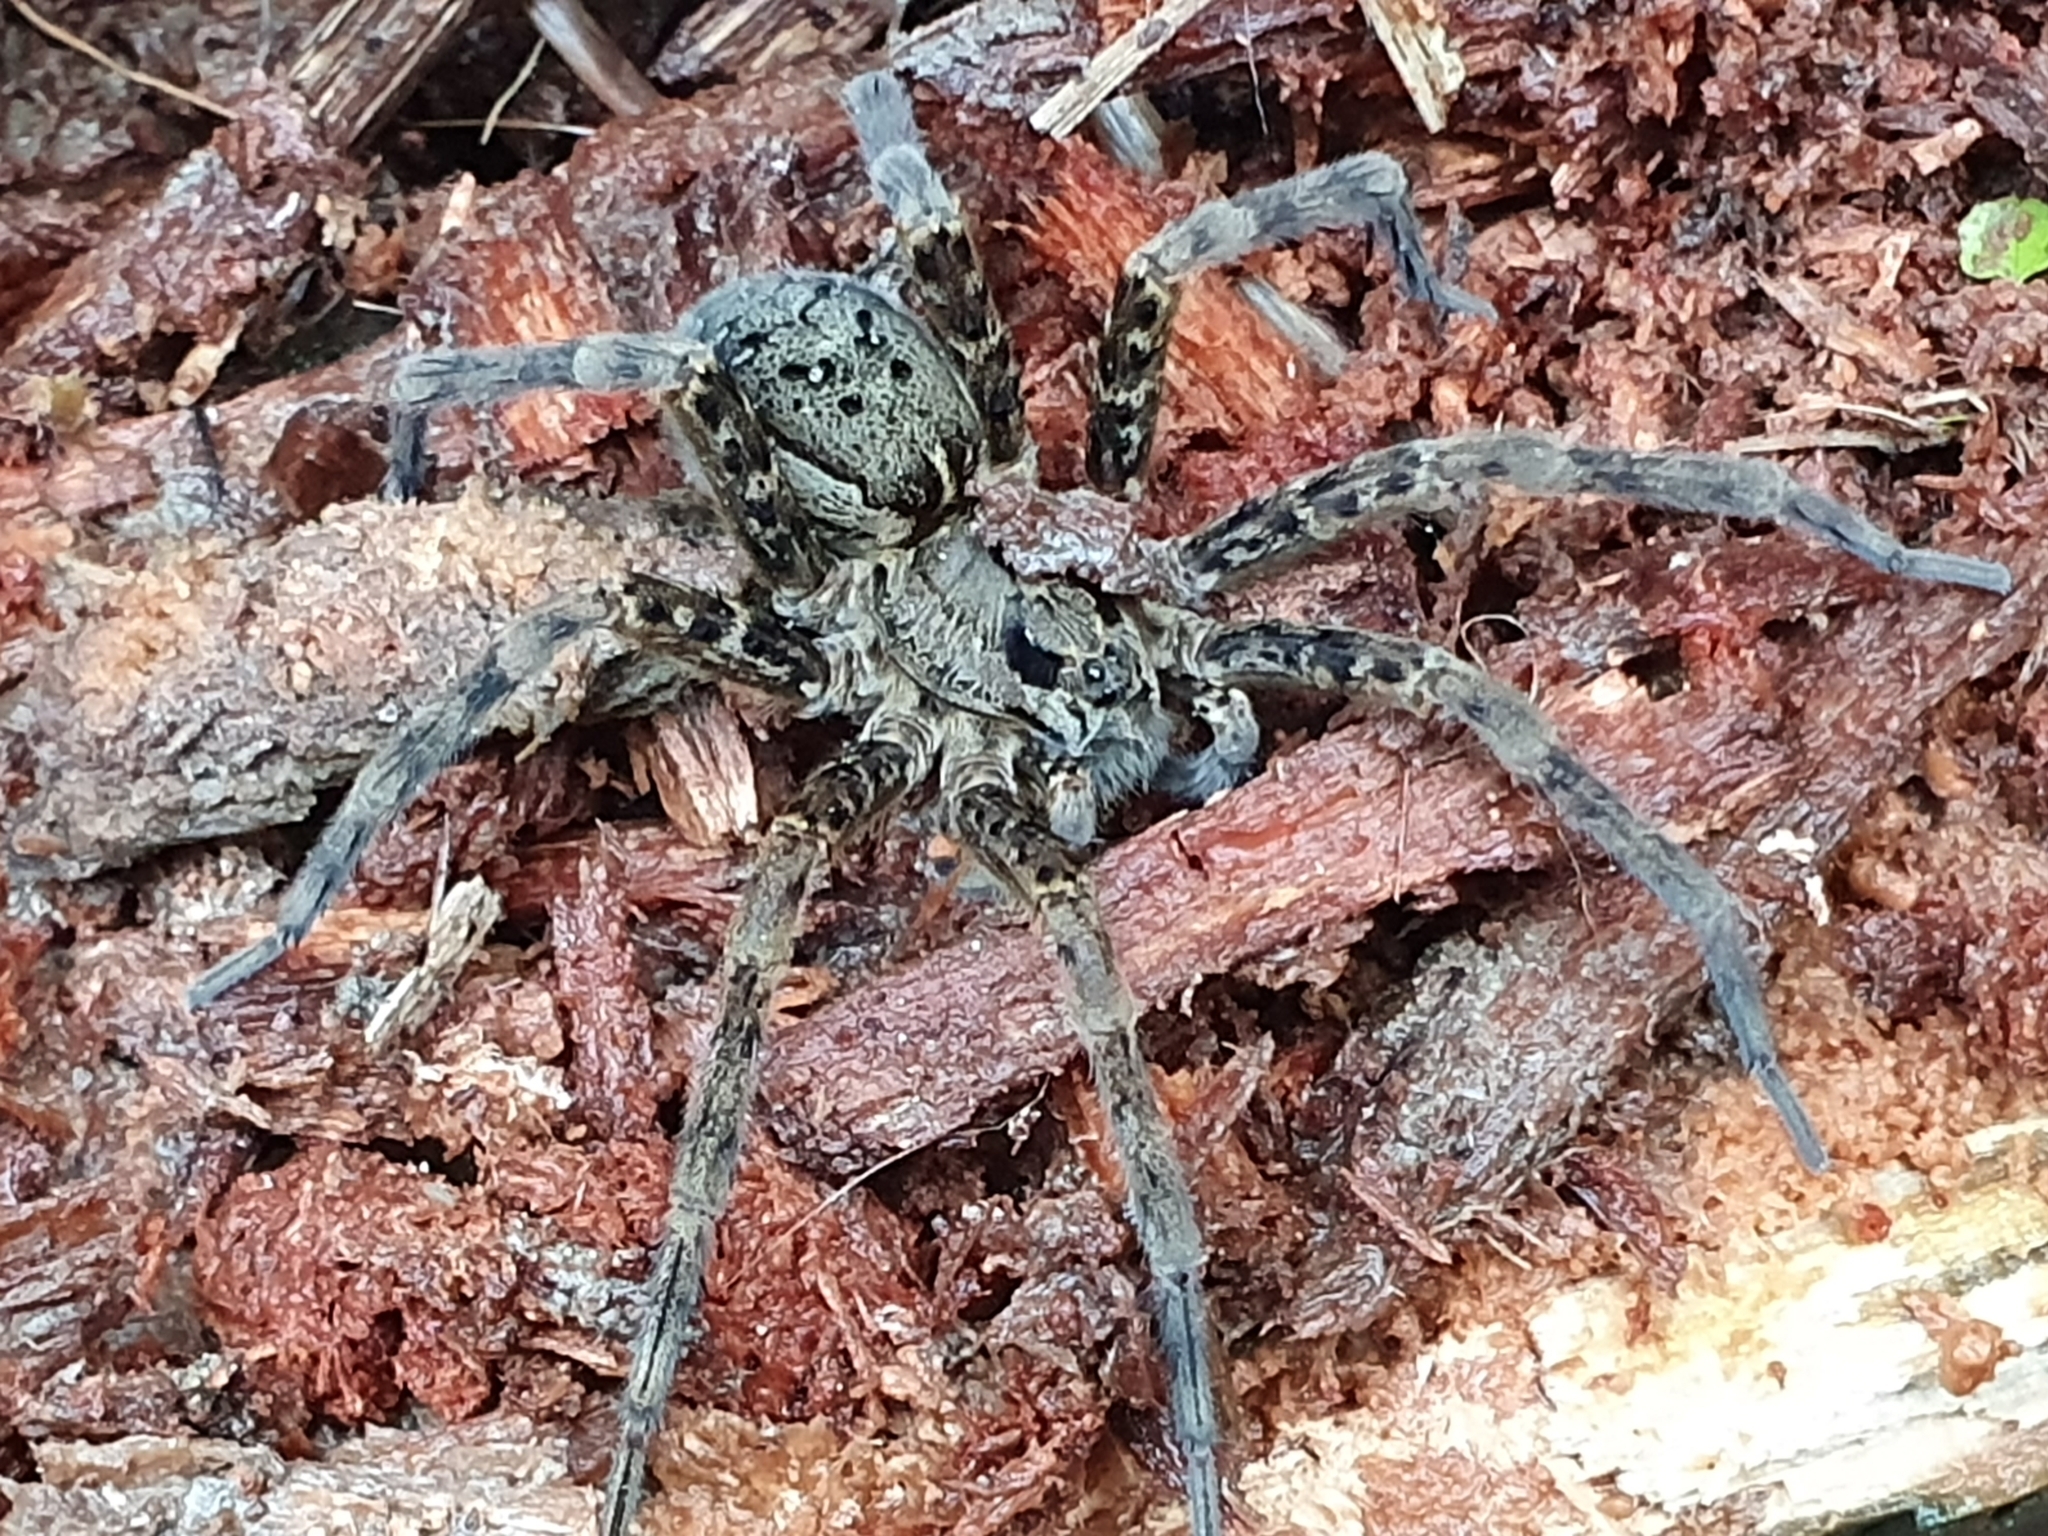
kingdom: Animalia
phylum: Arthropoda
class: Arachnida
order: Araneae
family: Pisauridae
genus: Dolomedes
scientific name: Dolomedes dondalei
